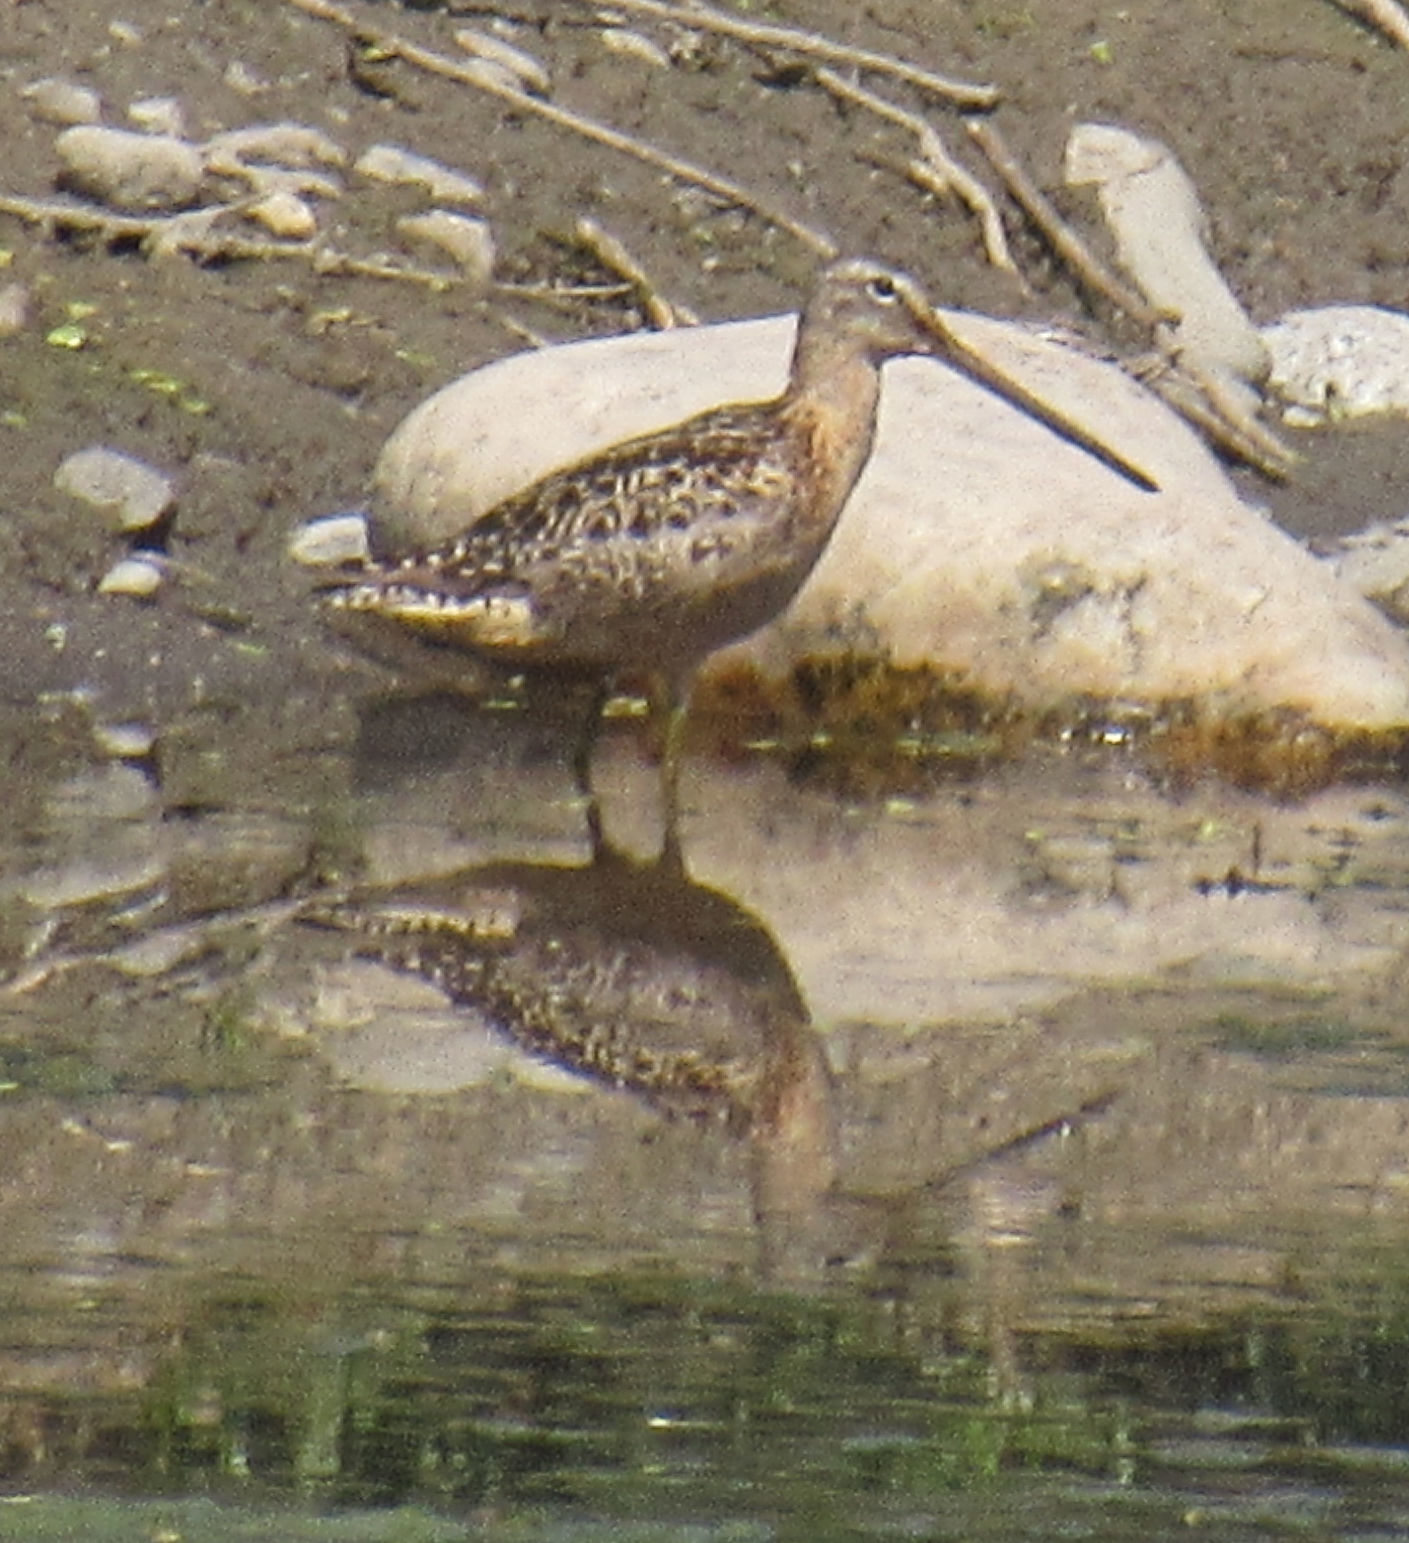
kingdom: Animalia
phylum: Chordata
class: Aves
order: Charadriiformes
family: Scolopacidae
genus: Limnodromus
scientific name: Limnodromus scolopaceus
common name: Long-billed dowitcher
